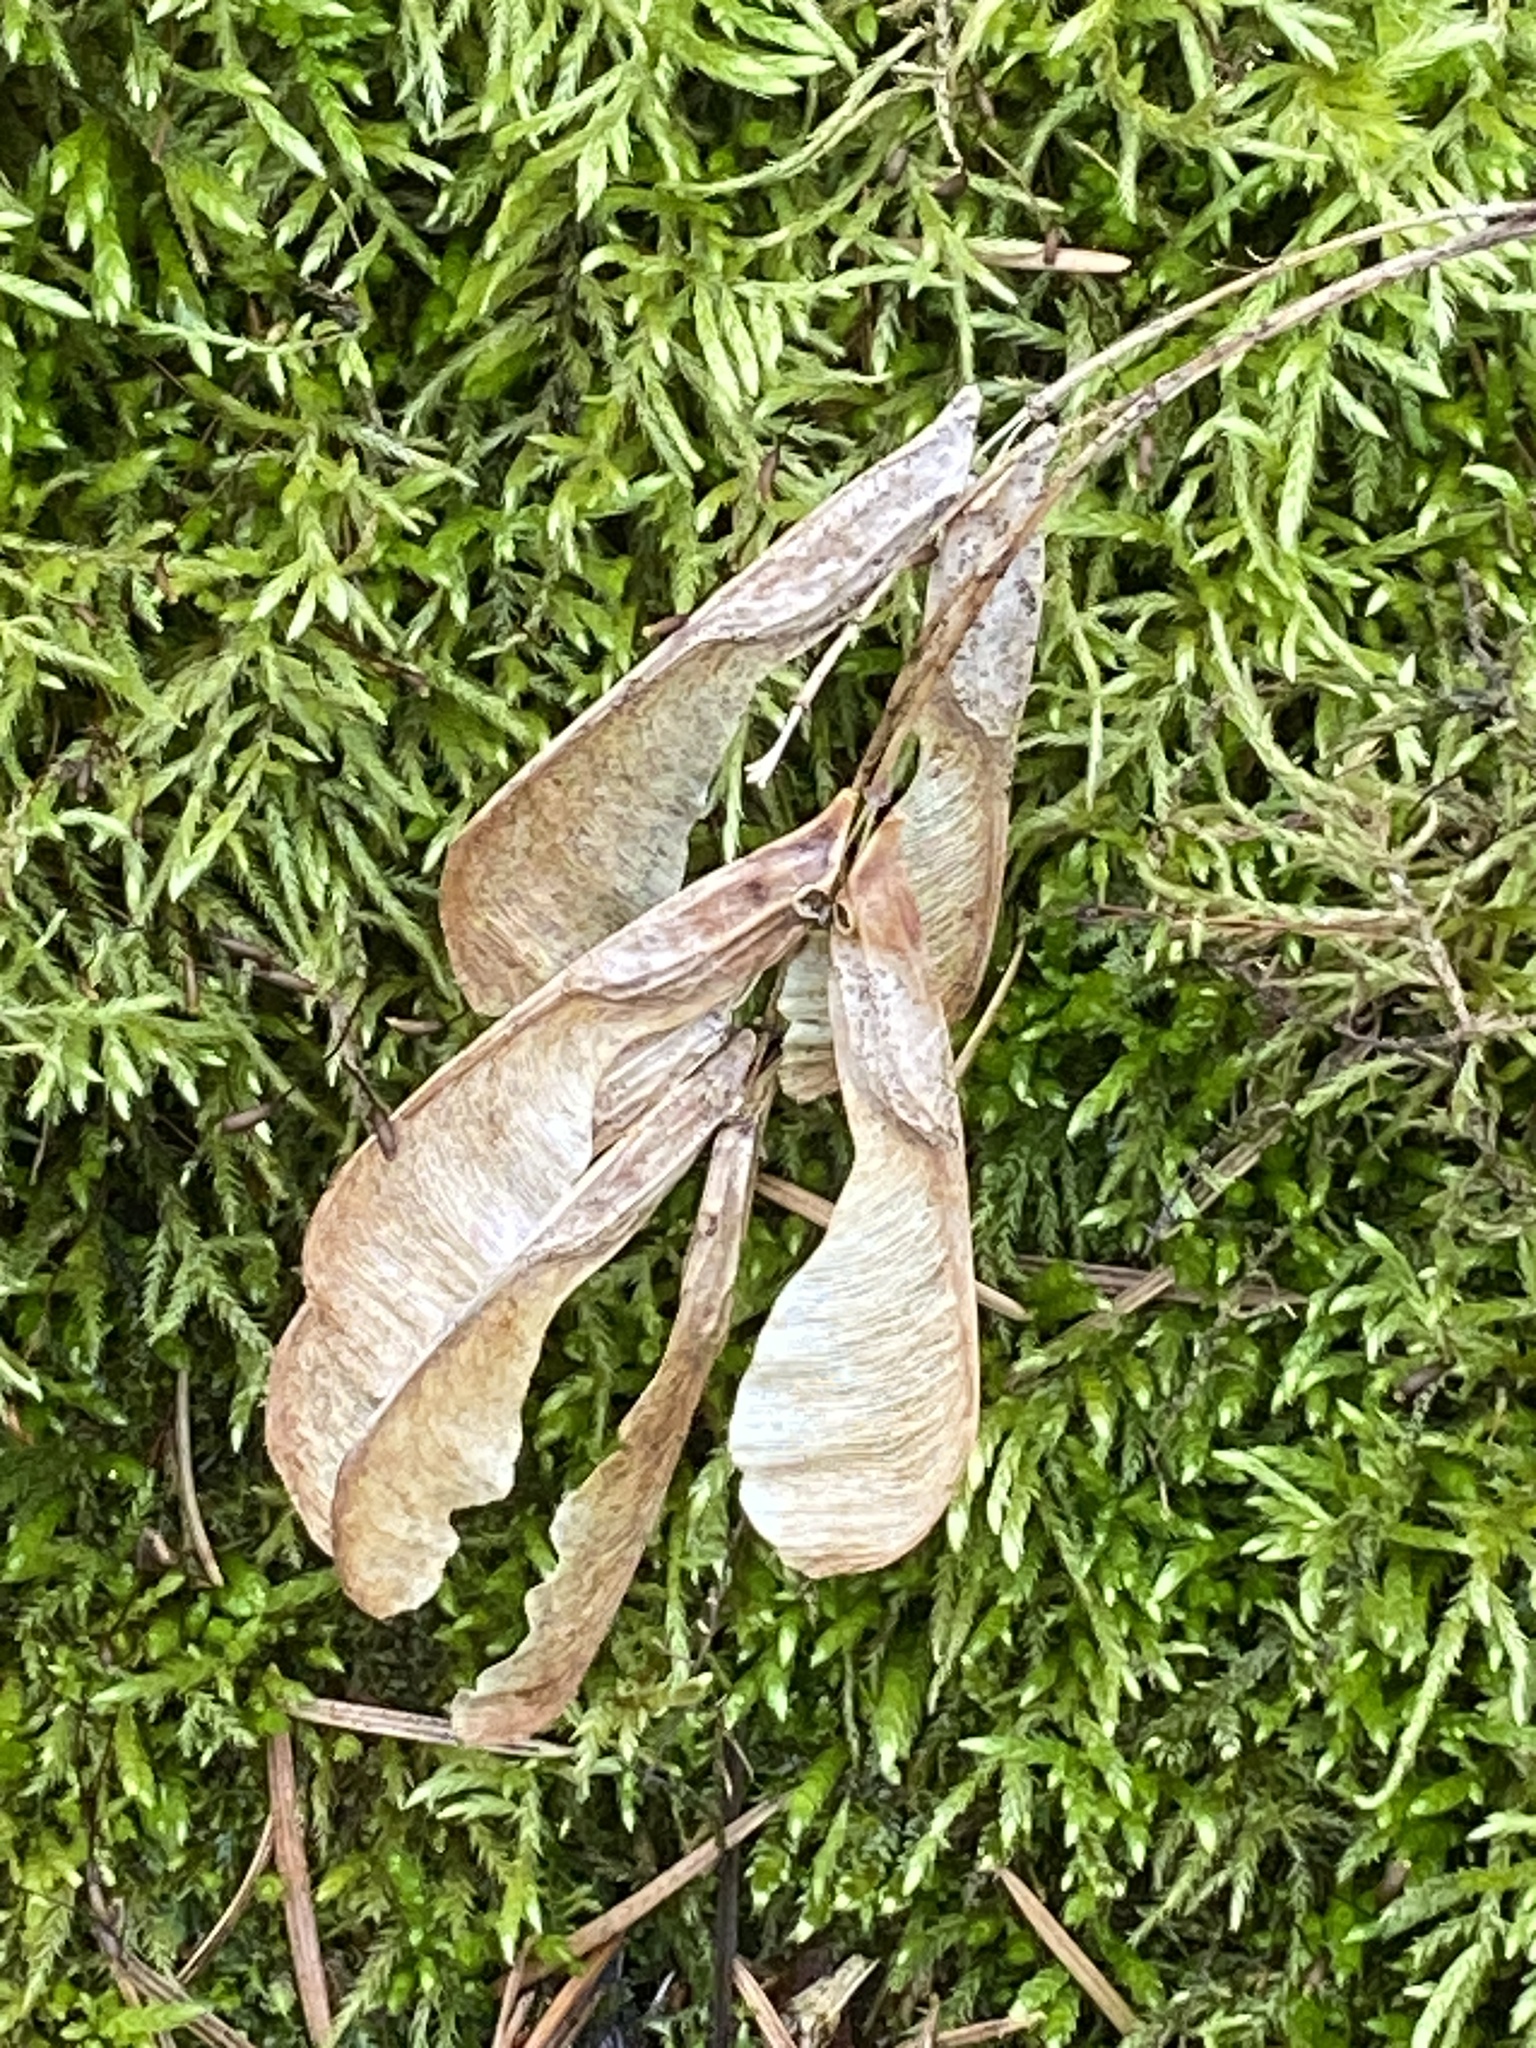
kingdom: Plantae
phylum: Tracheophyta
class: Magnoliopsida
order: Sapindales
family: Sapindaceae
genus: Acer
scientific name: Acer negundo
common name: Ashleaf maple
